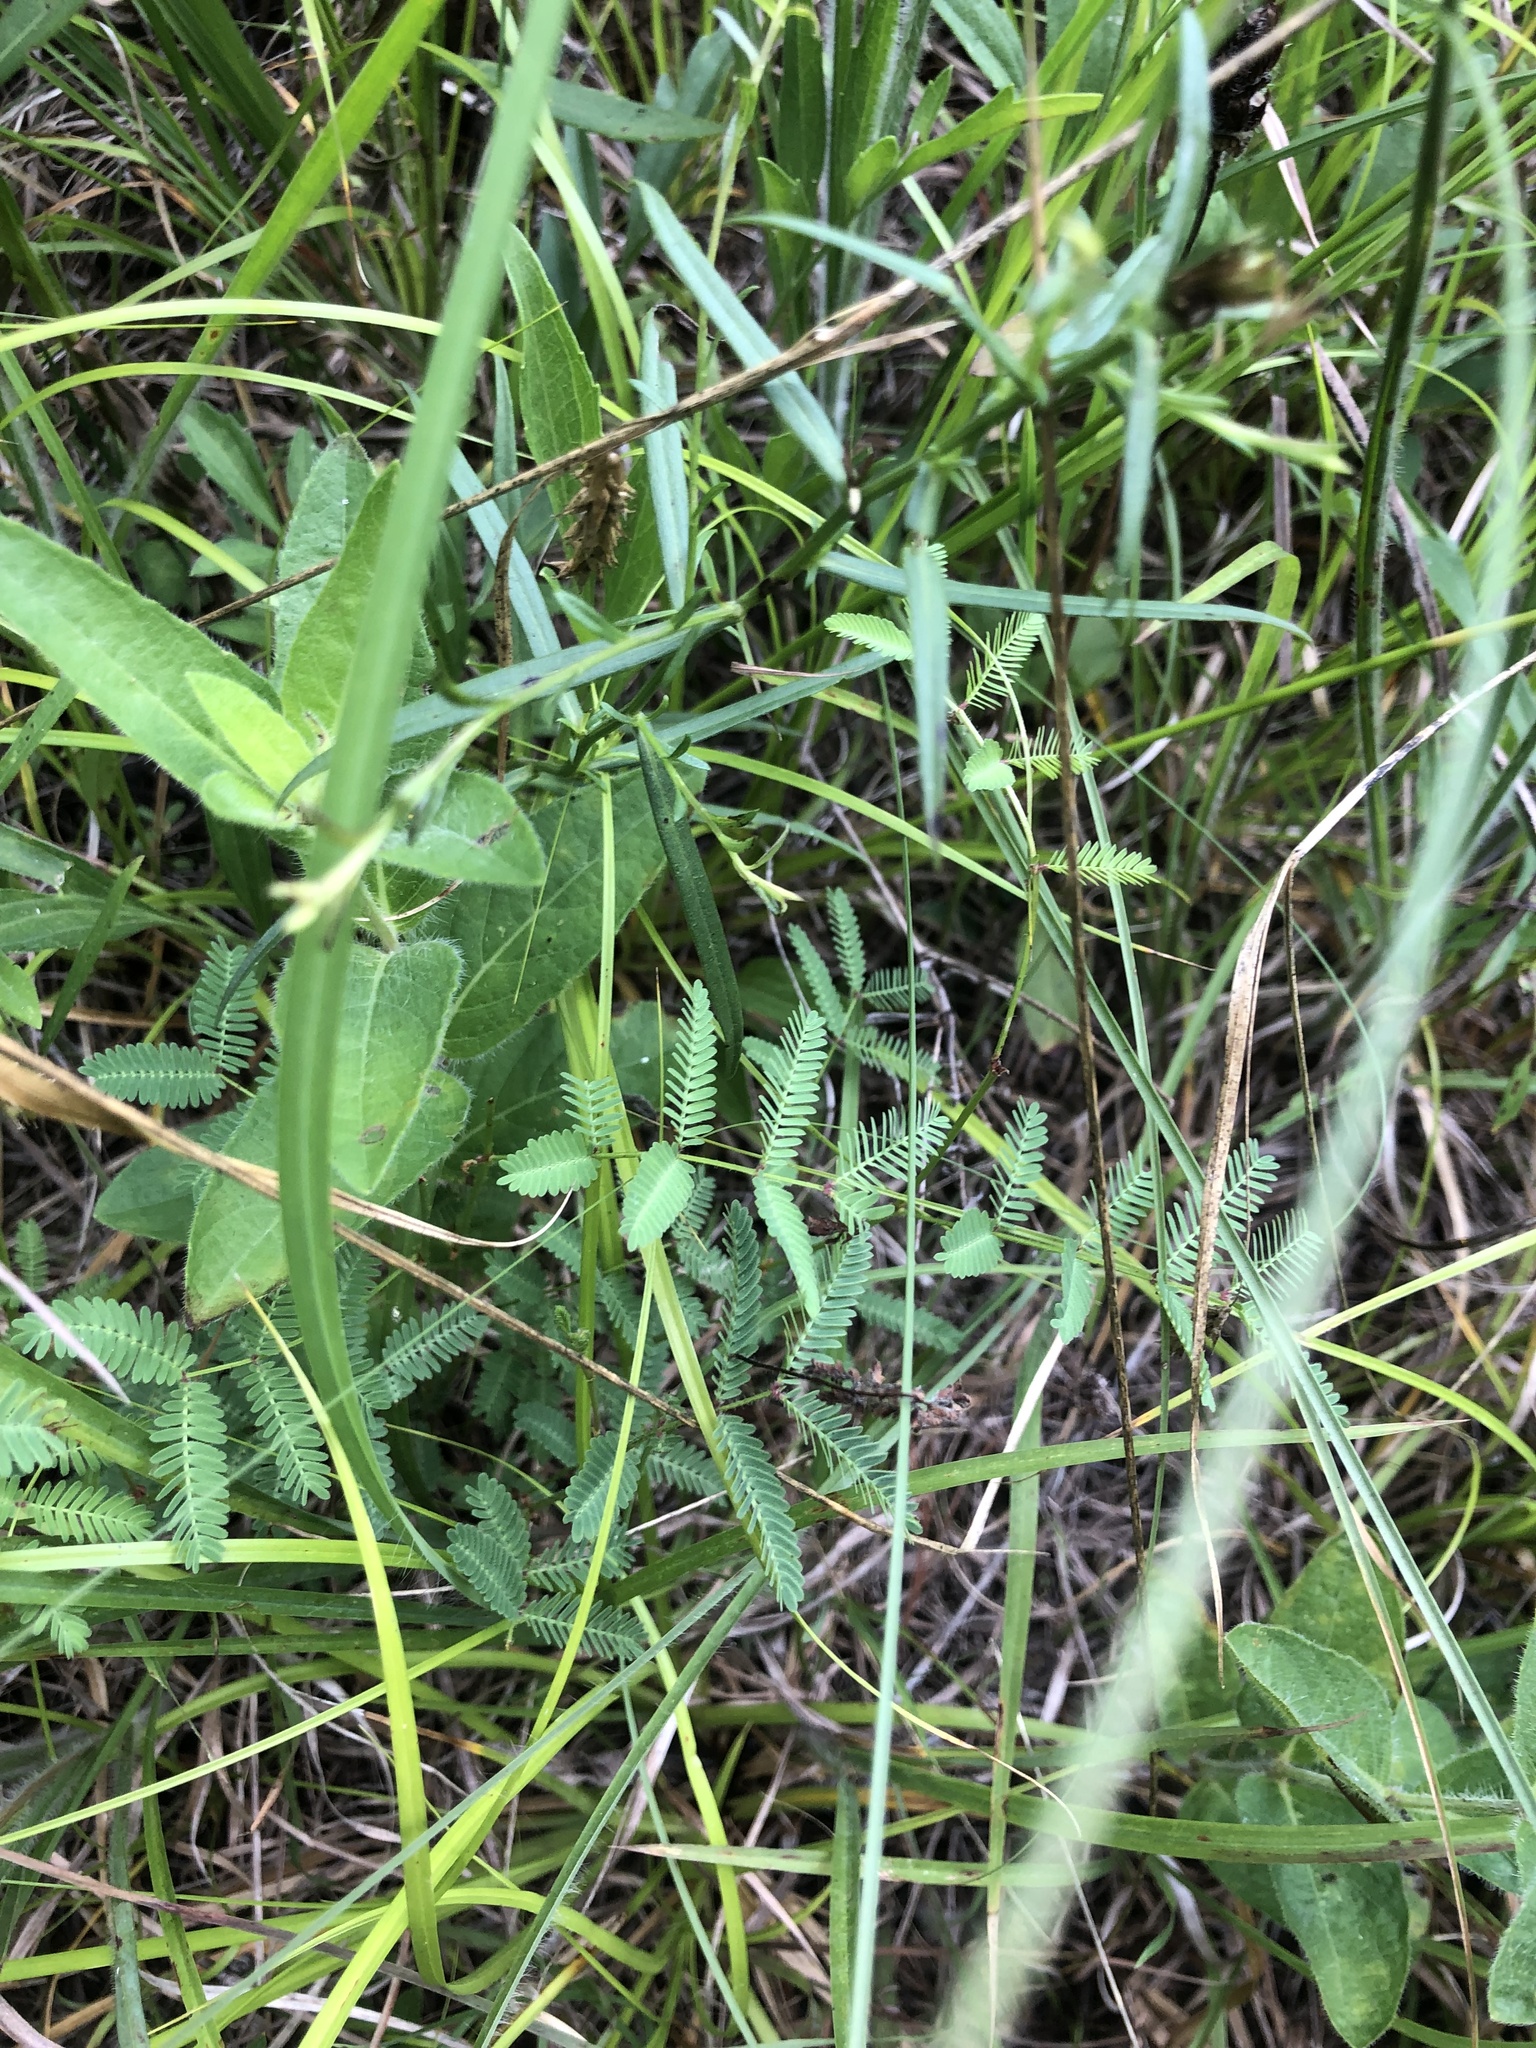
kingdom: Plantae
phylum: Tracheophyta
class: Magnoliopsida
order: Fabales
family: Fabaceae
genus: Neptunia
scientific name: Neptunia lutea
